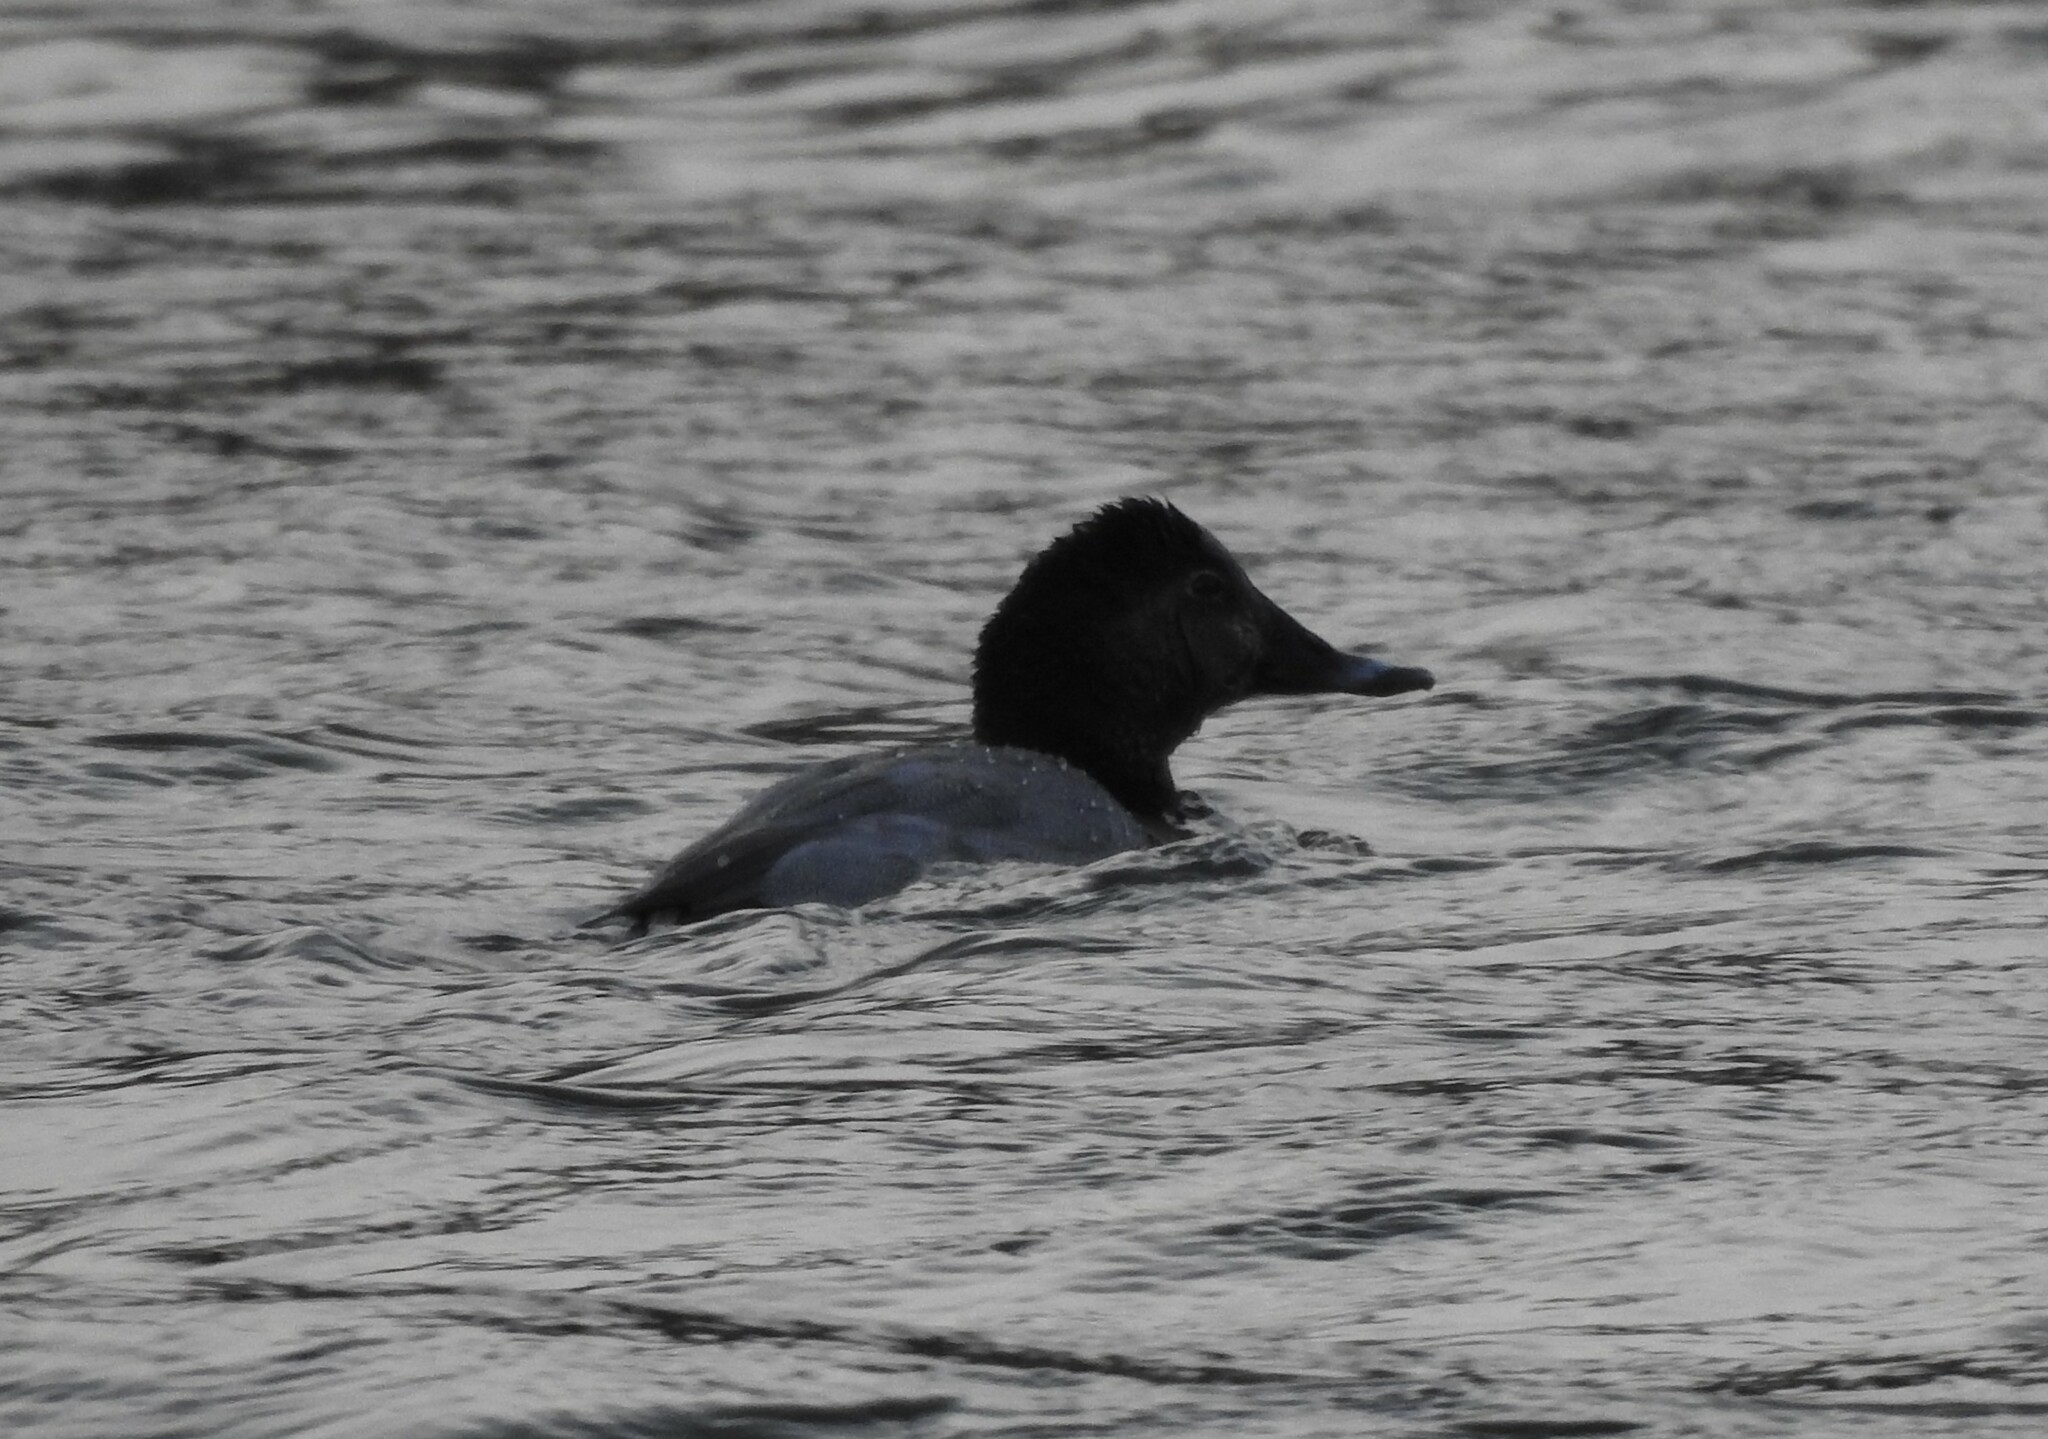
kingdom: Animalia
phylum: Chordata
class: Aves
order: Anseriformes
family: Anatidae
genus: Aythya
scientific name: Aythya ferina
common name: Common pochard
